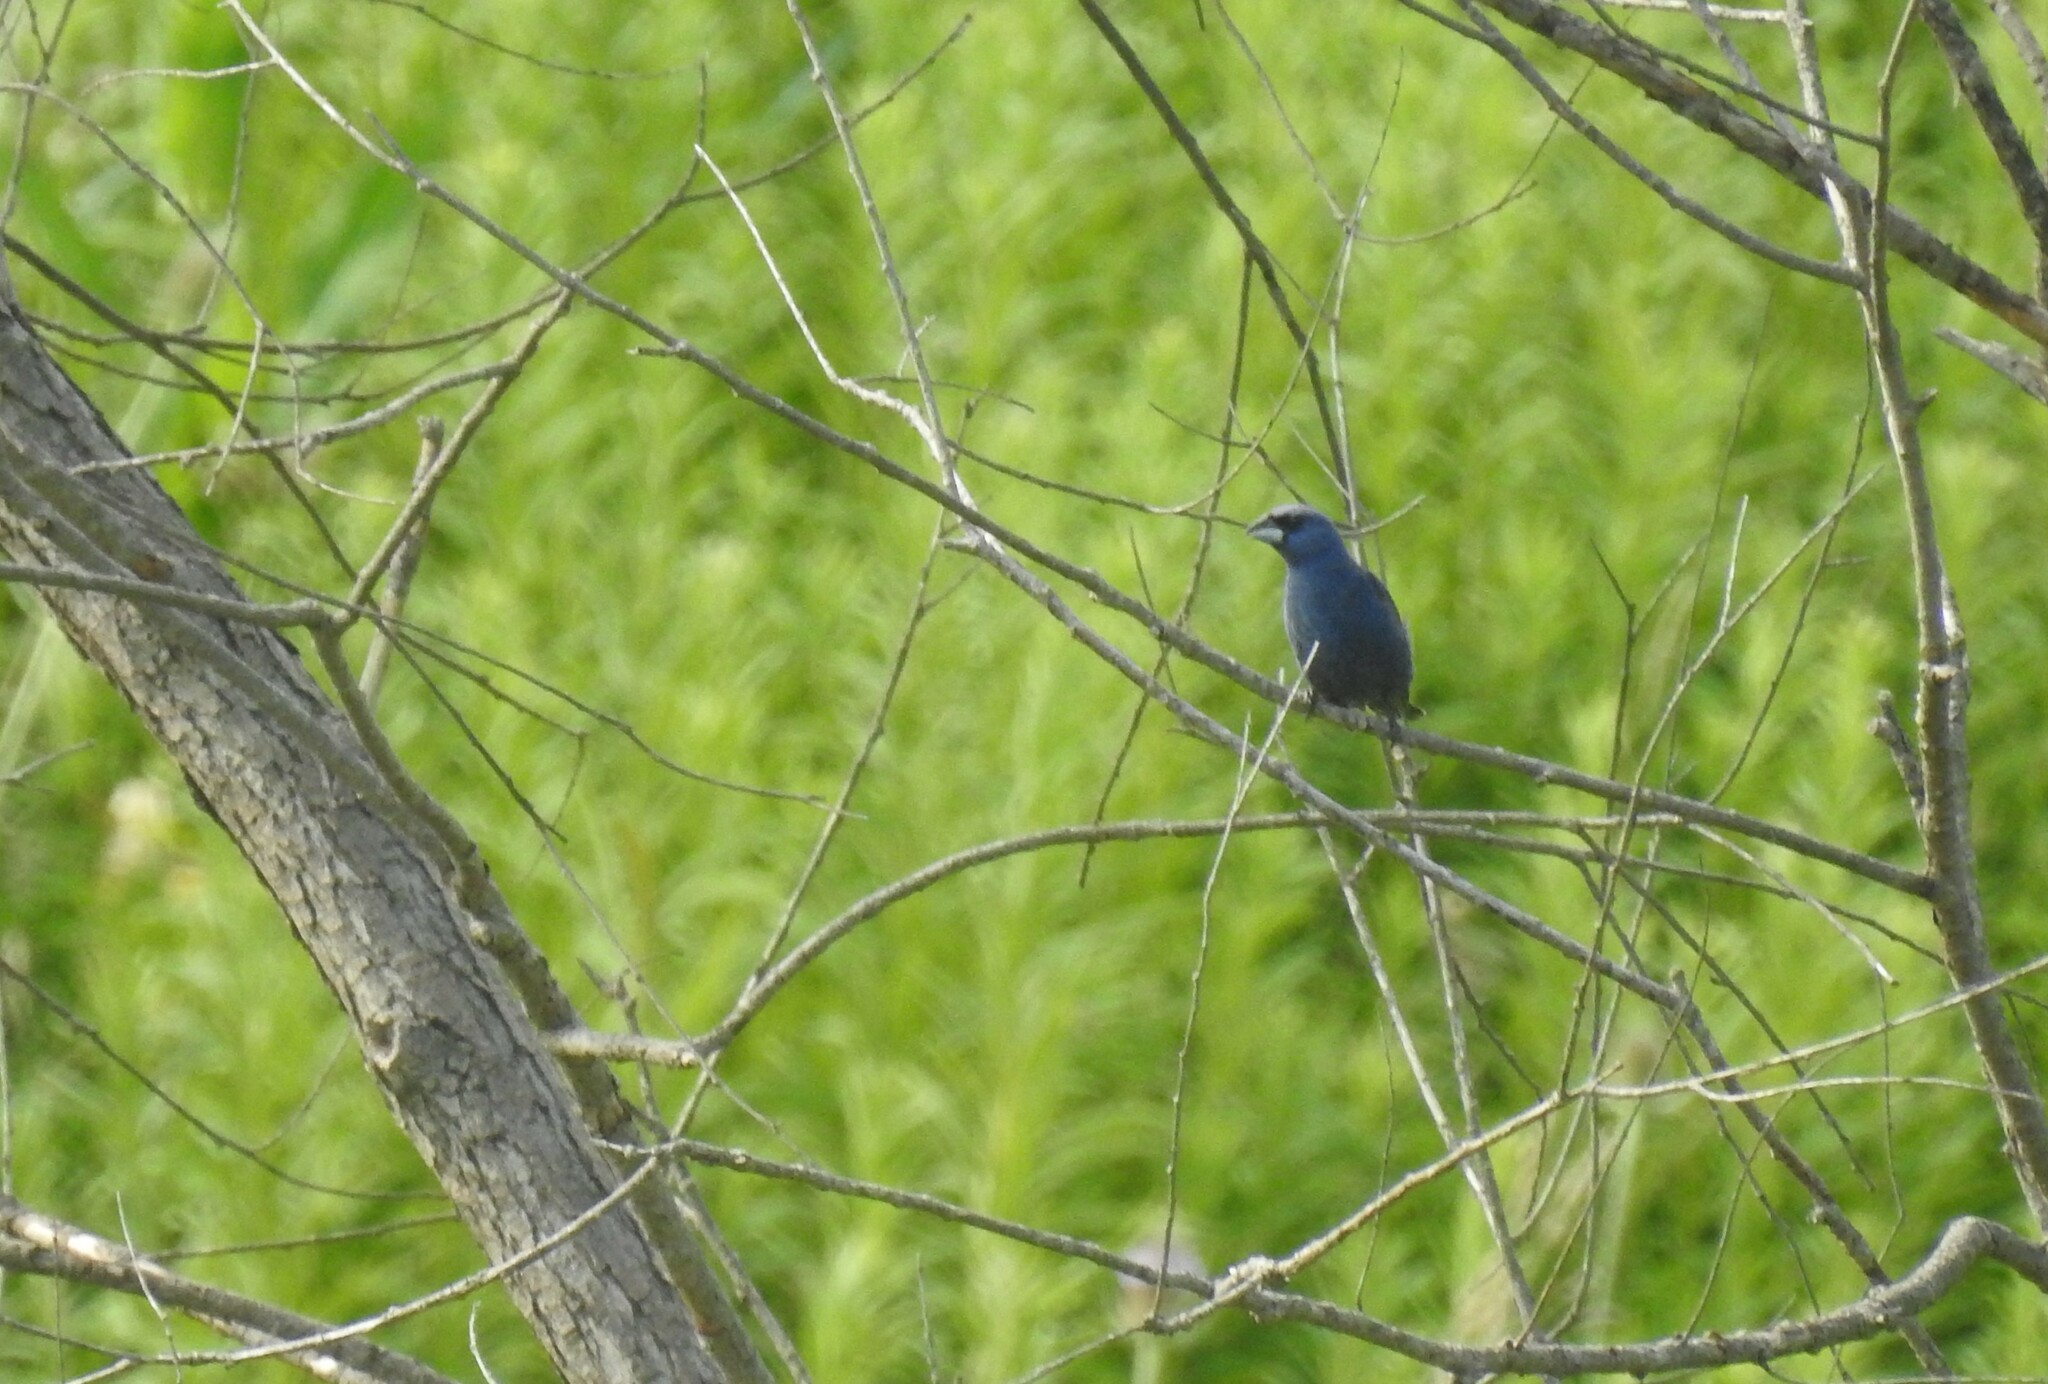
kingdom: Animalia
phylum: Chordata
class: Aves
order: Passeriformes
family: Cardinalidae
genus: Passerina
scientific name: Passerina caerulea
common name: Blue grosbeak
